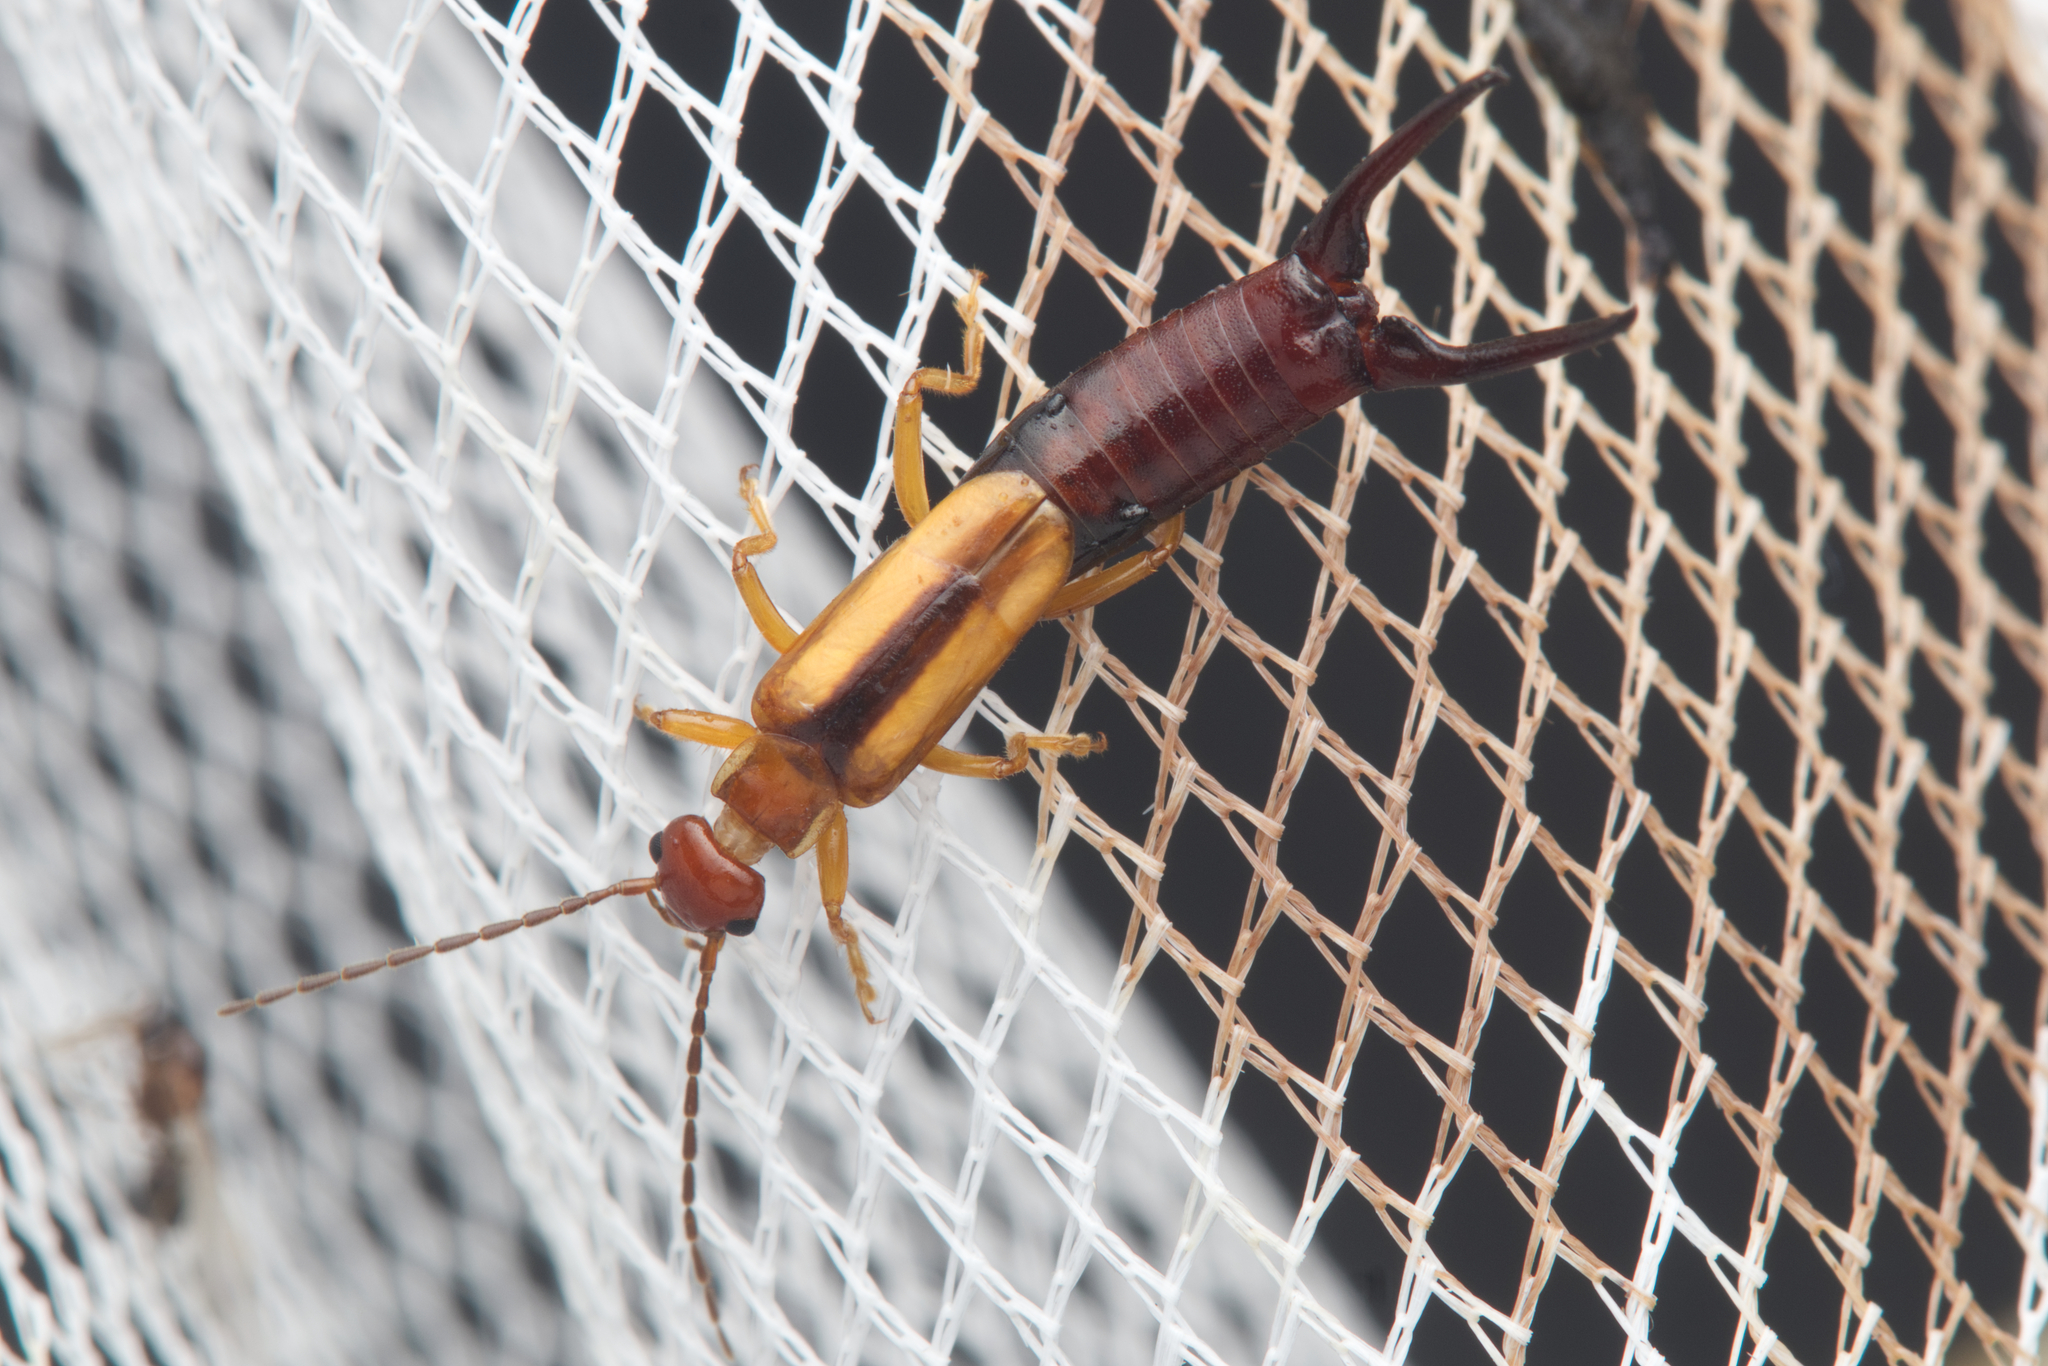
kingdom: Animalia
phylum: Arthropoda
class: Insecta
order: Dermaptera
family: Forficulidae
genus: Elaunon
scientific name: Elaunon bipartitus
